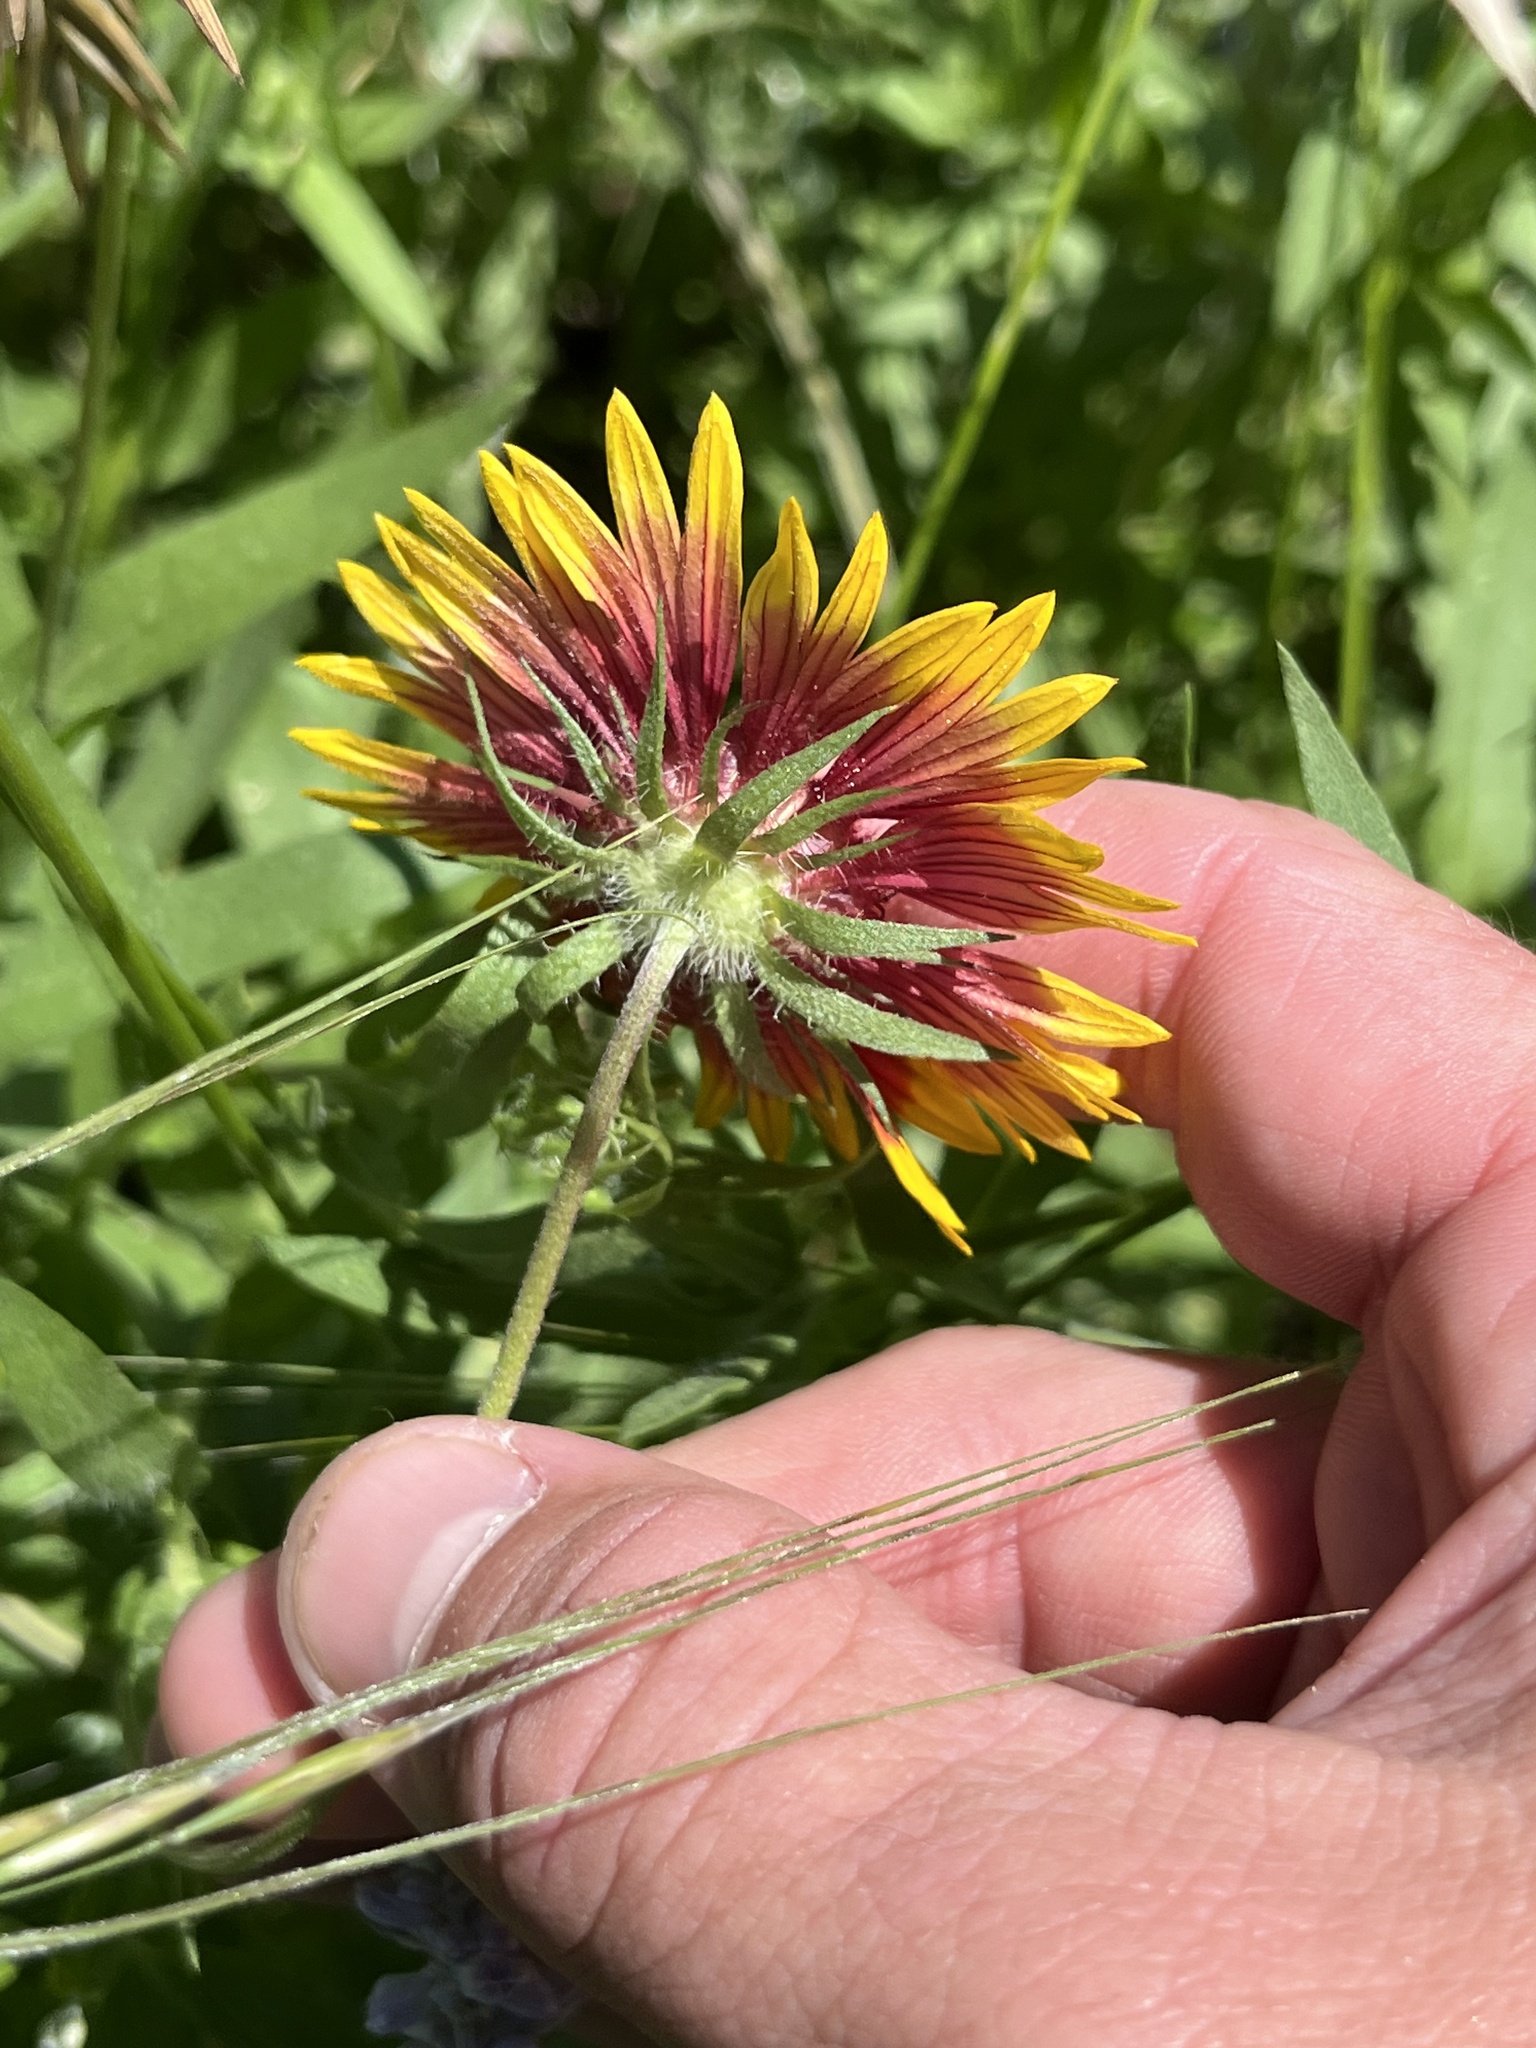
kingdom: Plantae
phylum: Tracheophyta
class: Magnoliopsida
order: Asterales
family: Asteraceae
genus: Gaillardia
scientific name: Gaillardia pulchella
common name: Firewheel
